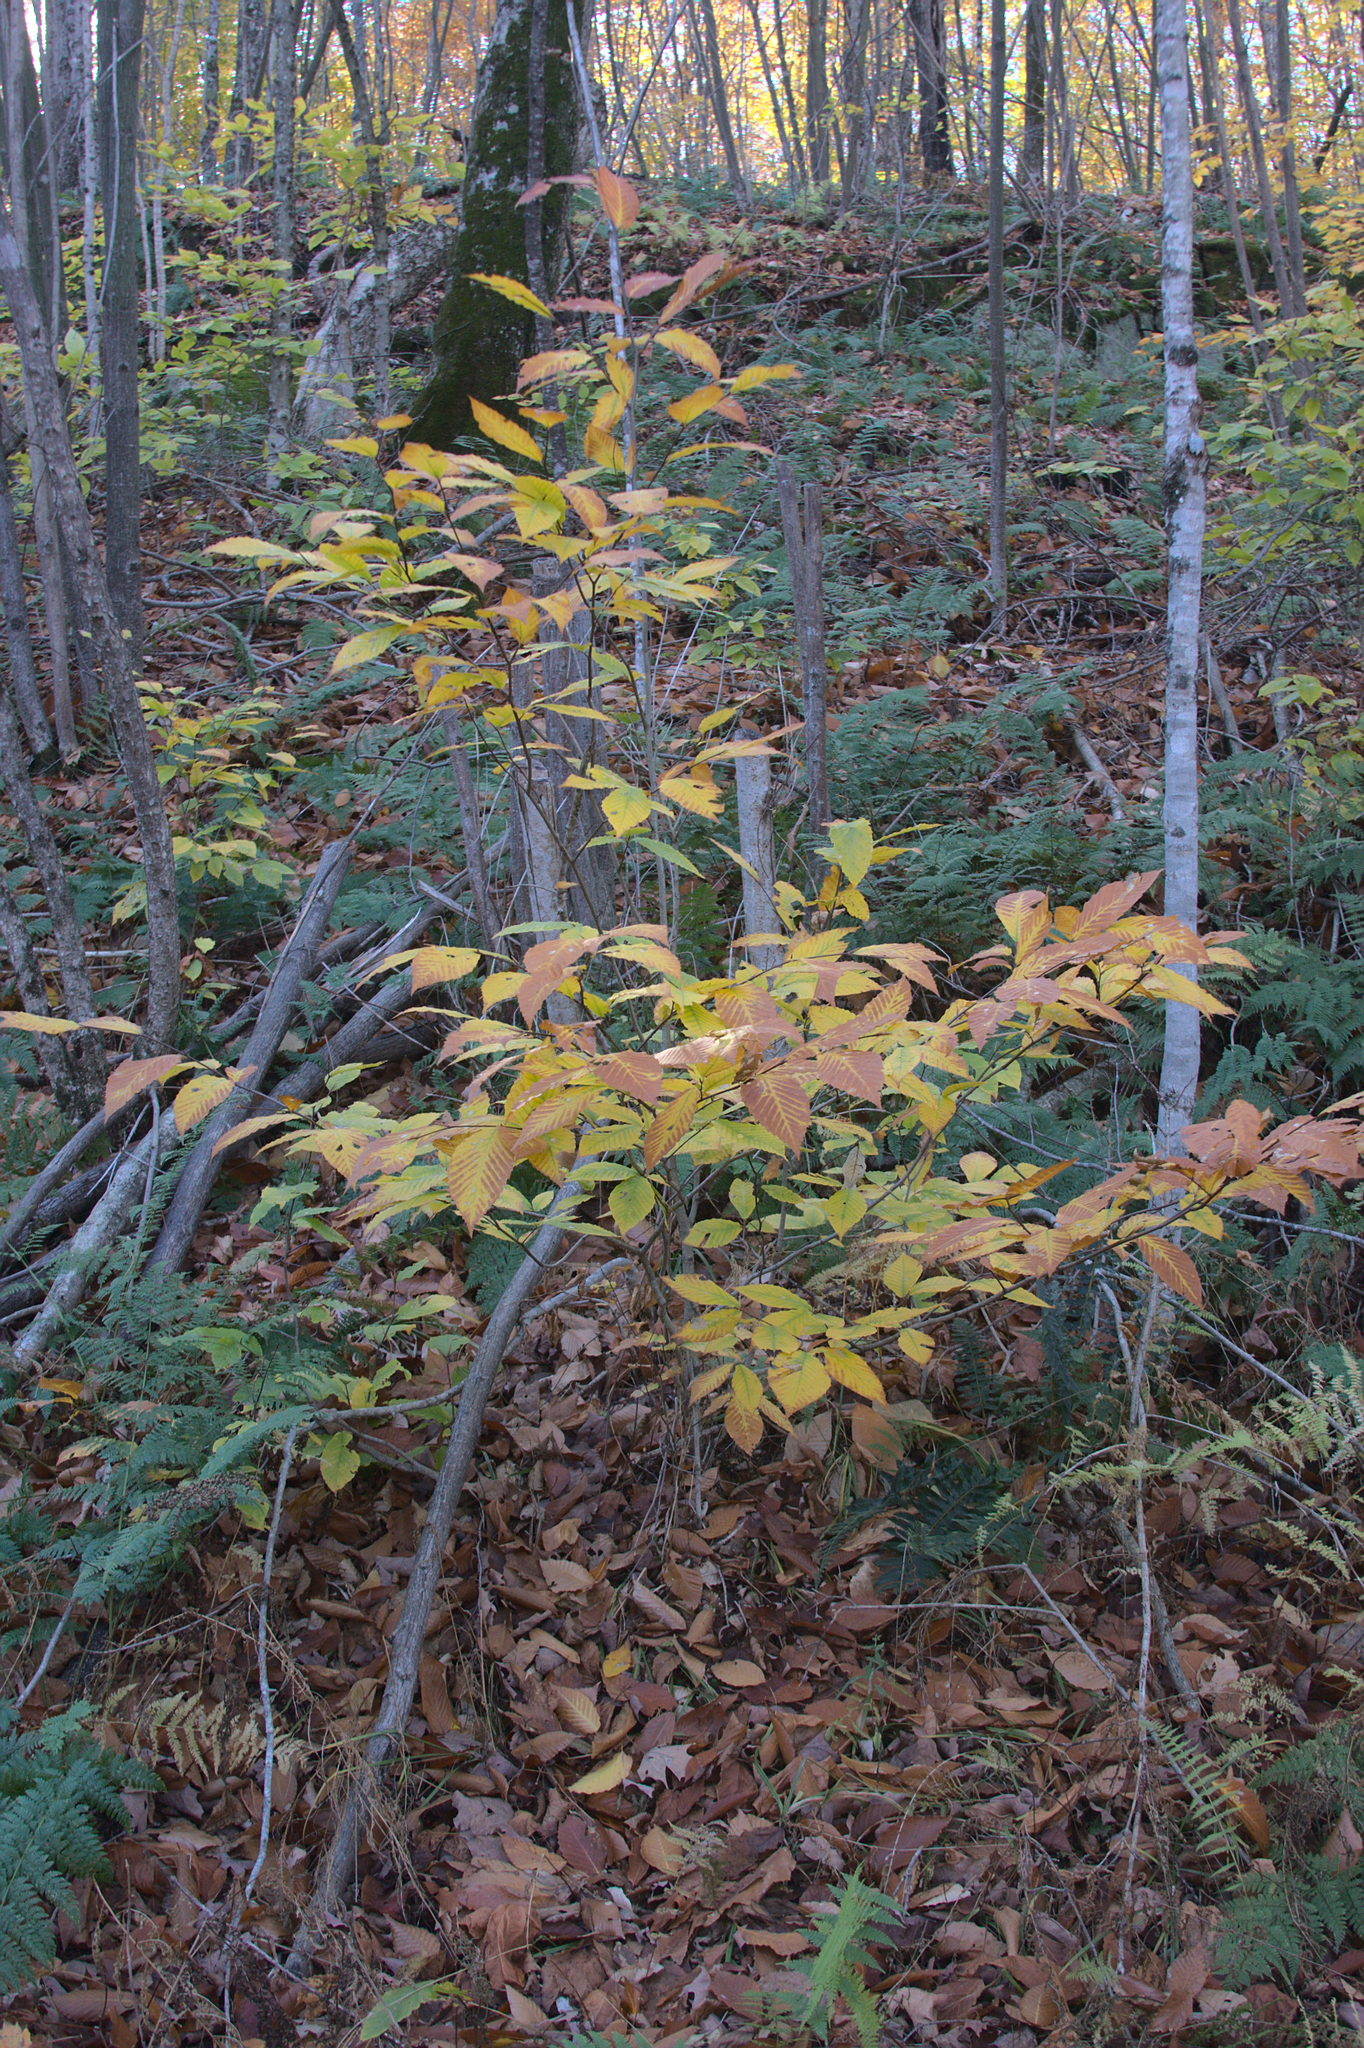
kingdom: Plantae
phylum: Tracheophyta
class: Magnoliopsida
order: Fagales
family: Fagaceae
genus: Fagus
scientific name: Fagus grandifolia
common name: American beech
